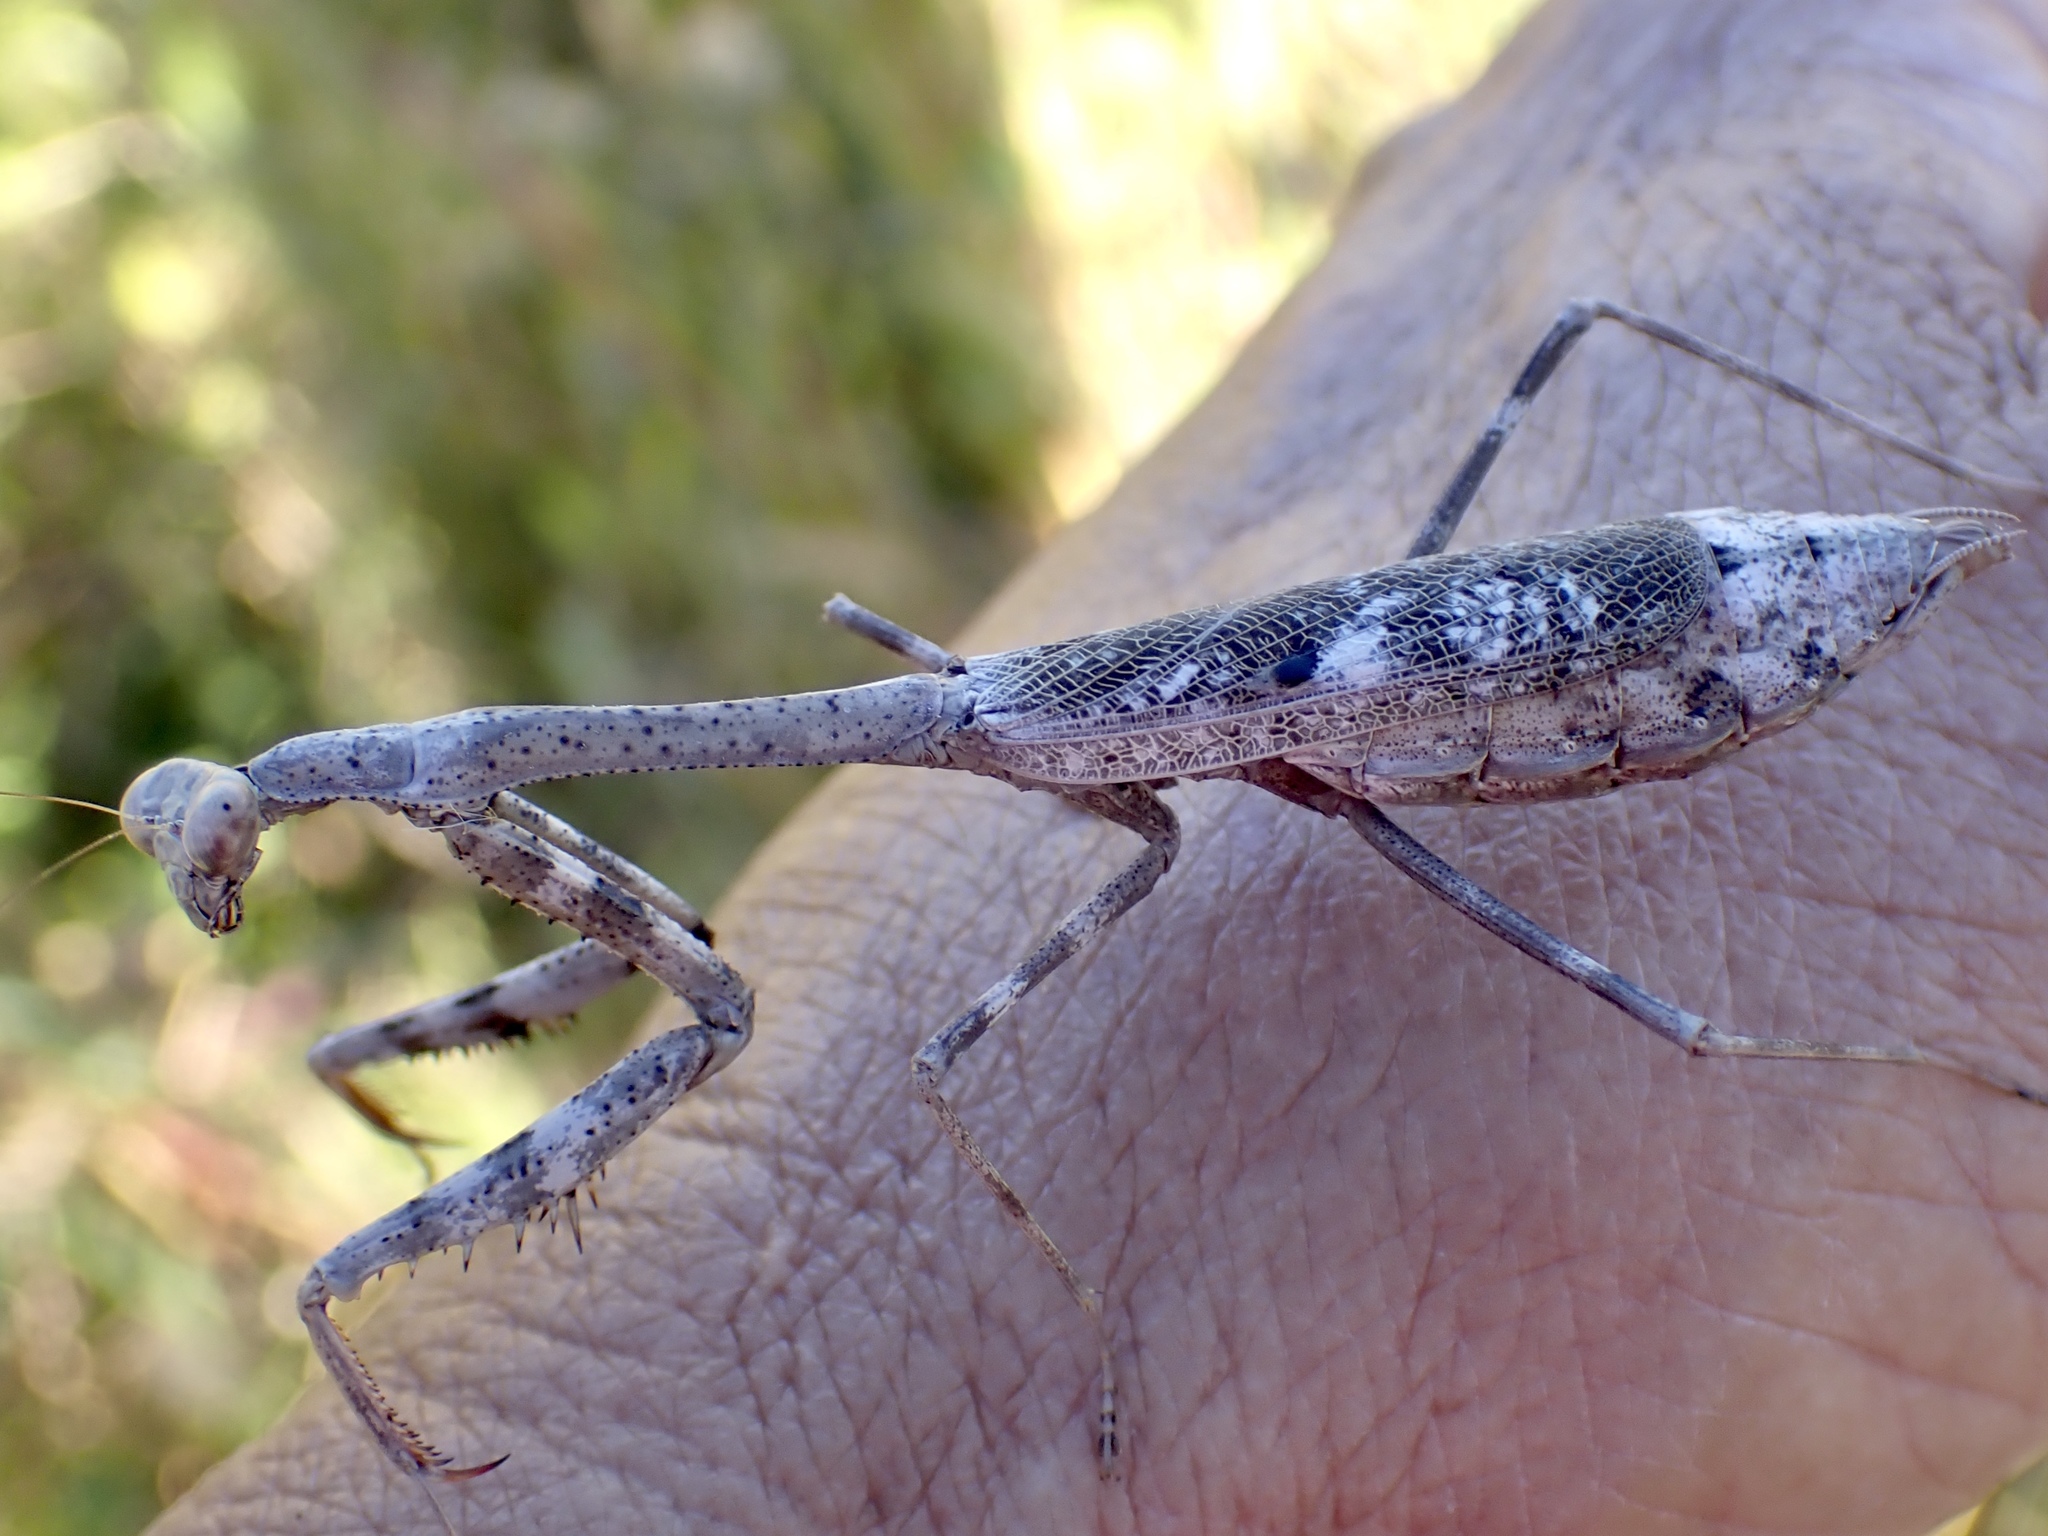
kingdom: Animalia
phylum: Arthropoda
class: Insecta
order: Mantodea
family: Mantidae
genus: Stagmomantis
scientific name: Stagmomantis carolina
